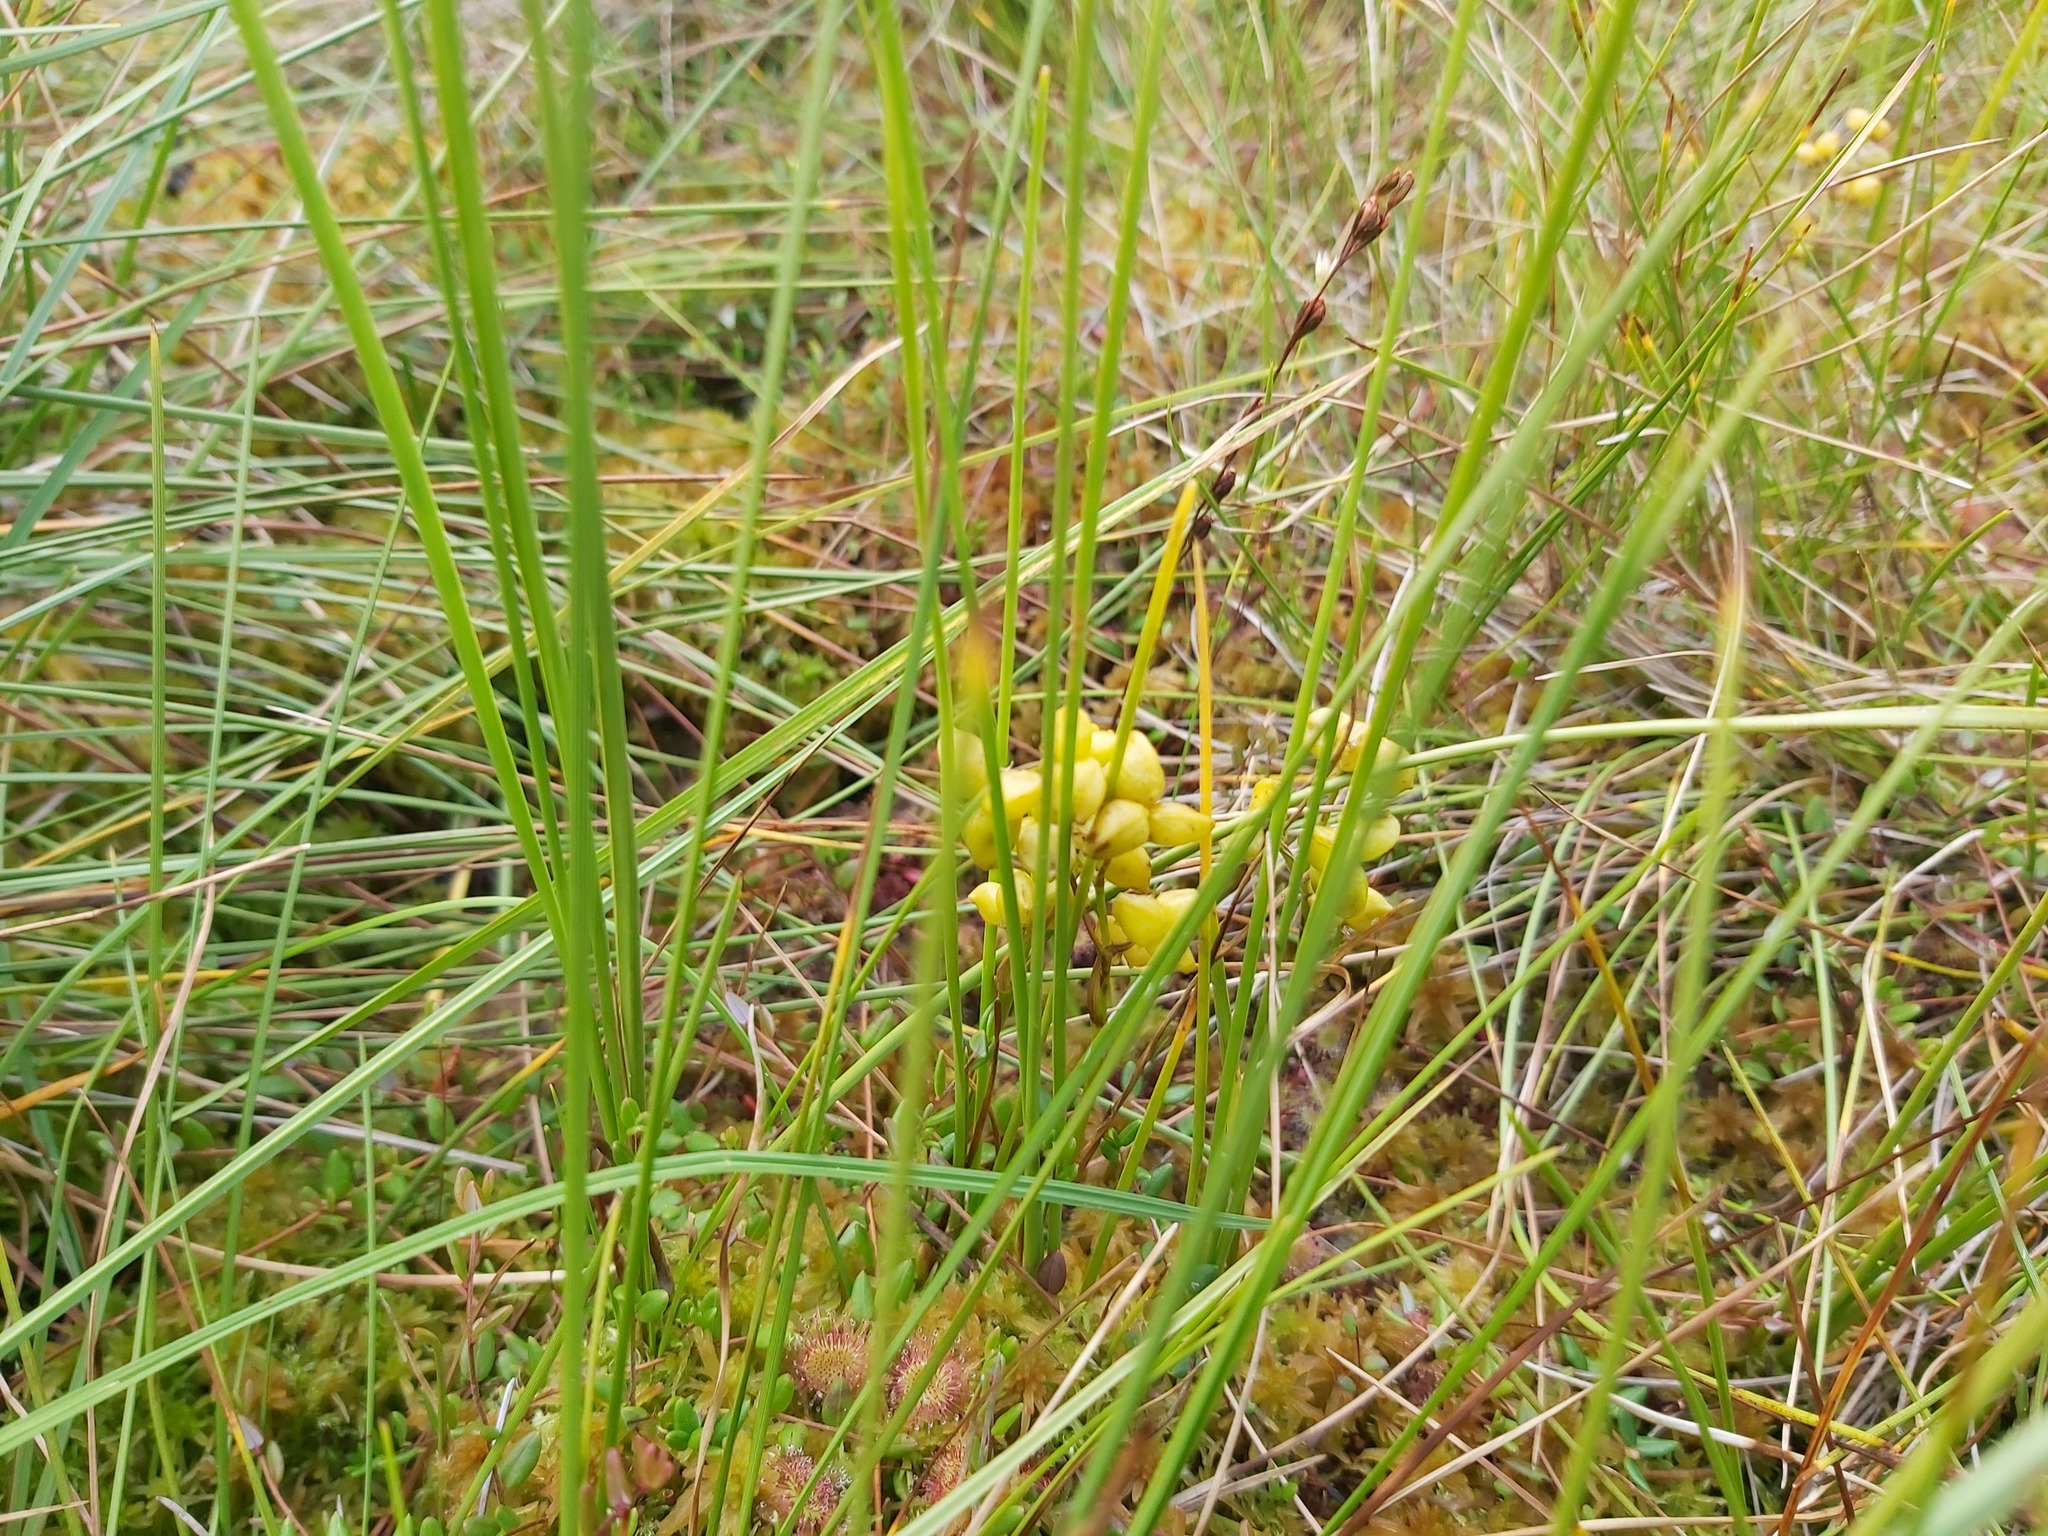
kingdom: Plantae
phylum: Tracheophyta
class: Liliopsida
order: Alismatales
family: Scheuchzeriaceae
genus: Scheuchzeria
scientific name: Scheuchzeria palustris
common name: Rannoch-rush
